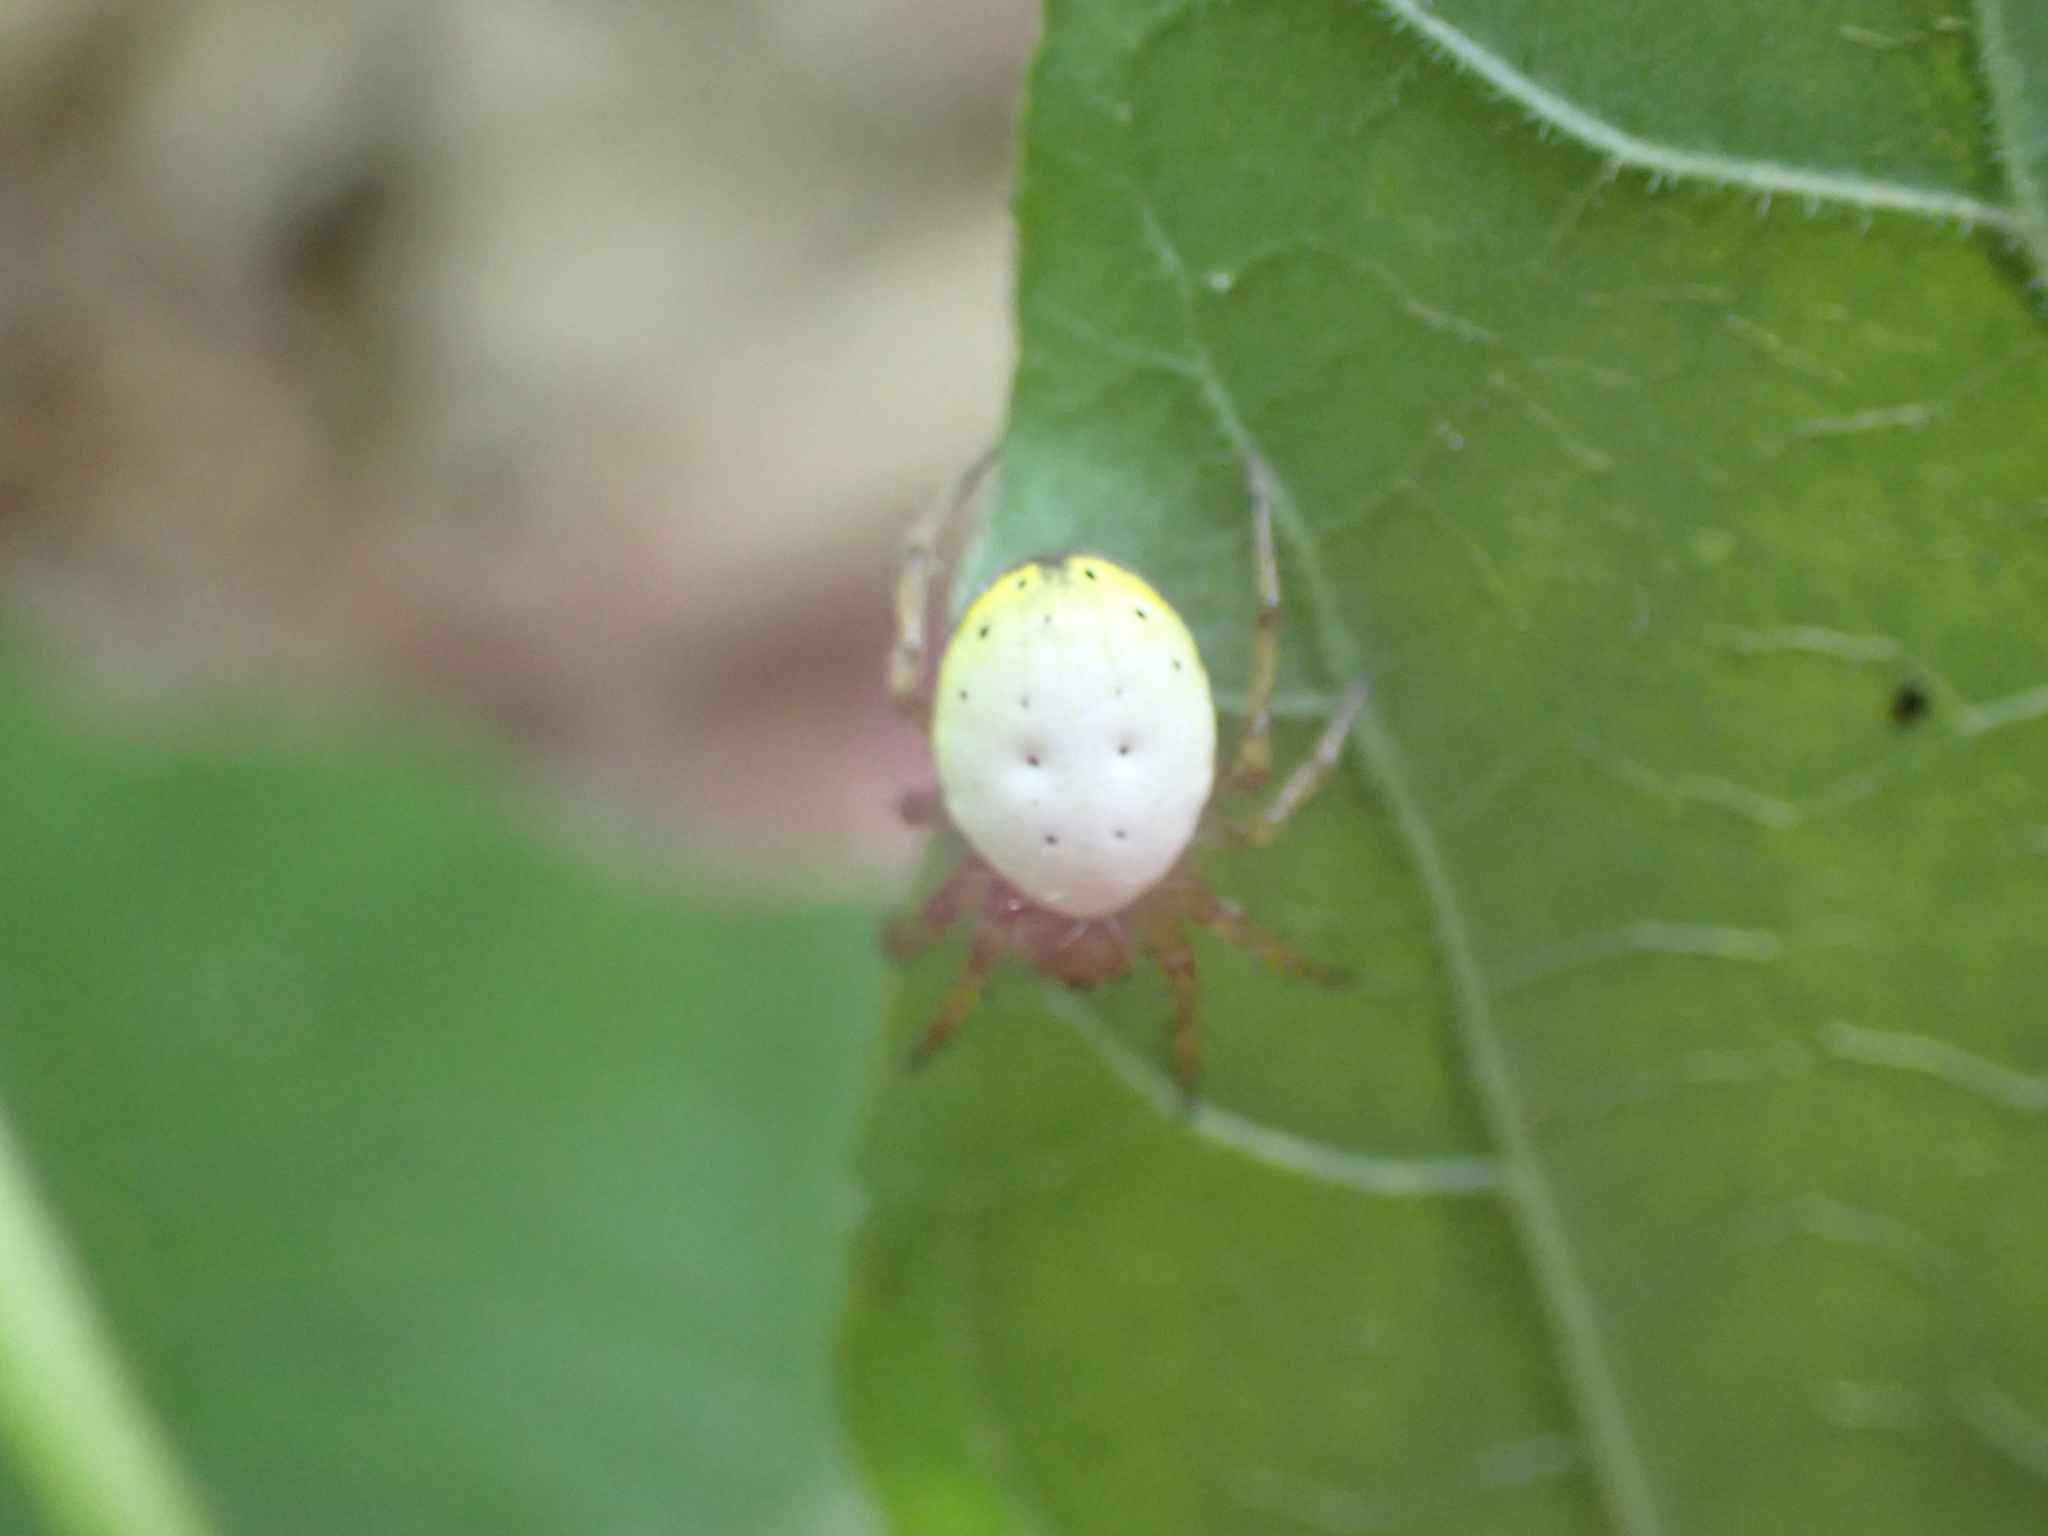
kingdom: Animalia
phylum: Arthropoda
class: Arachnida
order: Araneae
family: Araneidae
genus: Araniella
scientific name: Araniella displicata
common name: Sixspotted orb weaver
